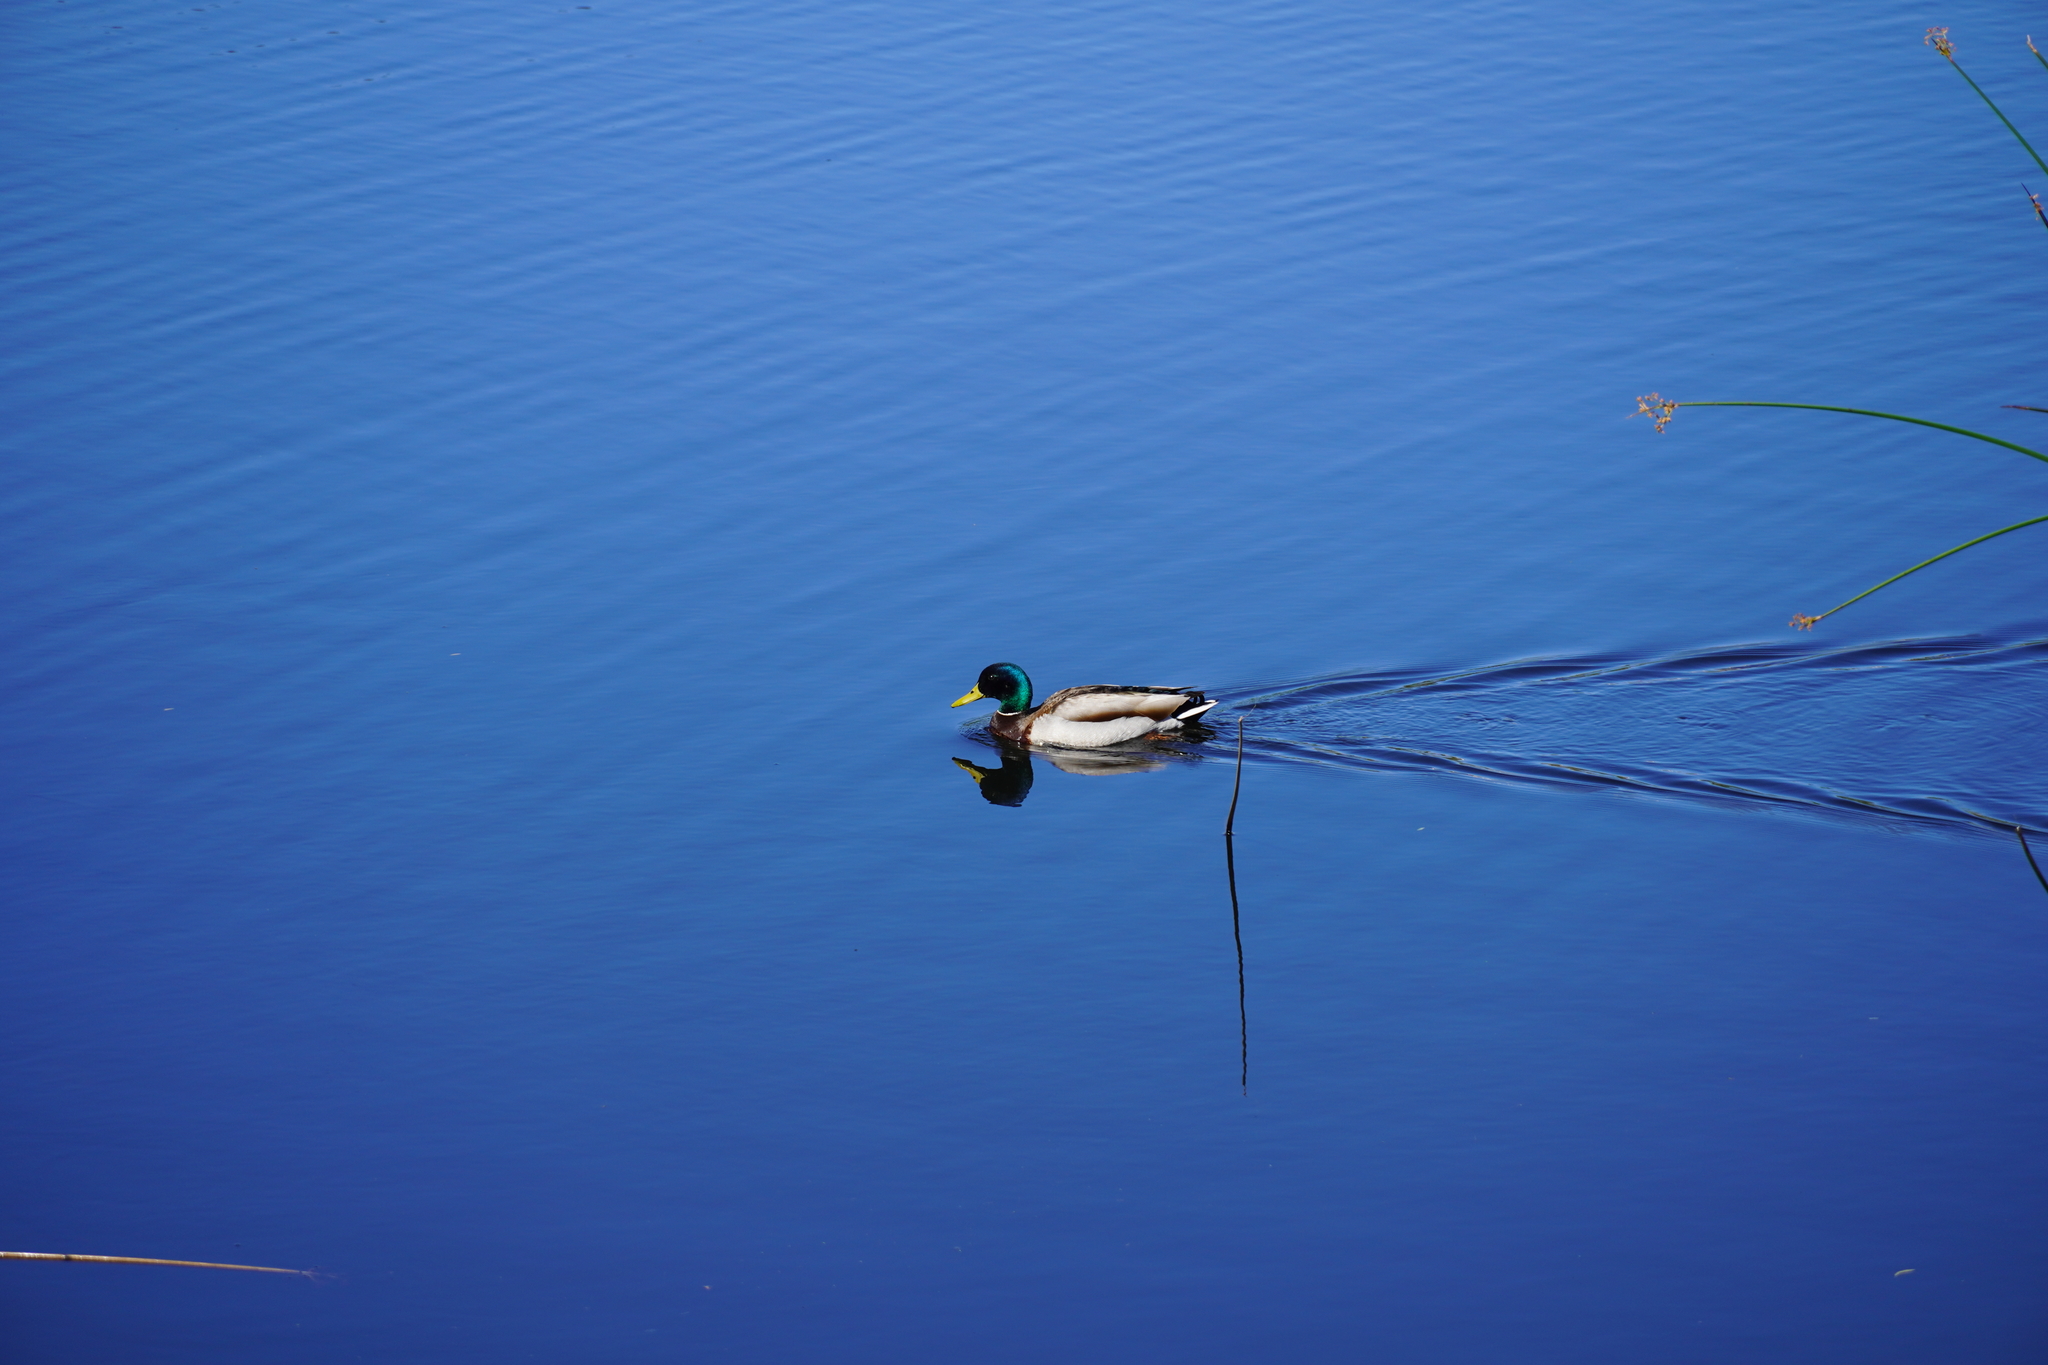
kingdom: Animalia
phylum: Chordata
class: Aves
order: Anseriformes
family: Anatidae
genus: Anas
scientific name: Anas platyrhynchos
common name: Mallard
